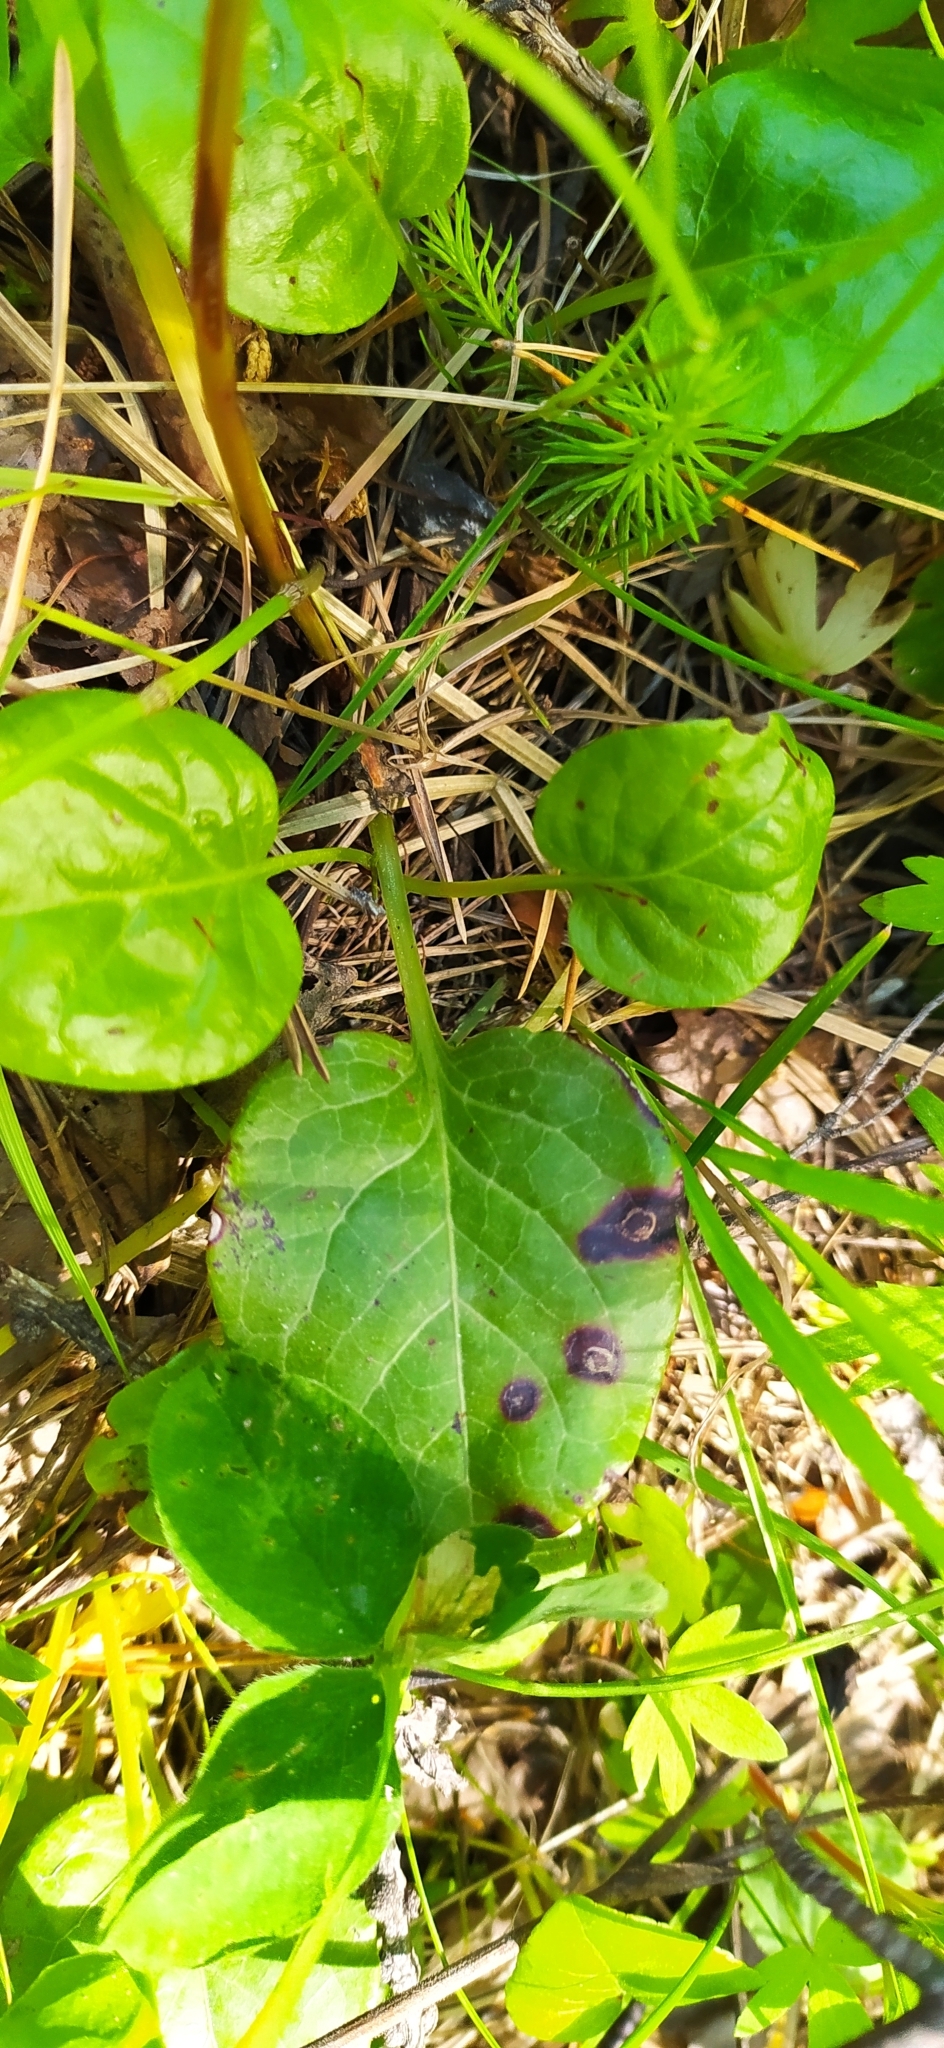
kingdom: Plantae
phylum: Tracheophyta
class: Magnoliopsida
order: Ericales
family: Ericaceae
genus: Pyrola
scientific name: Pyrola rotundifolia
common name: Round-leaved wintergreen
